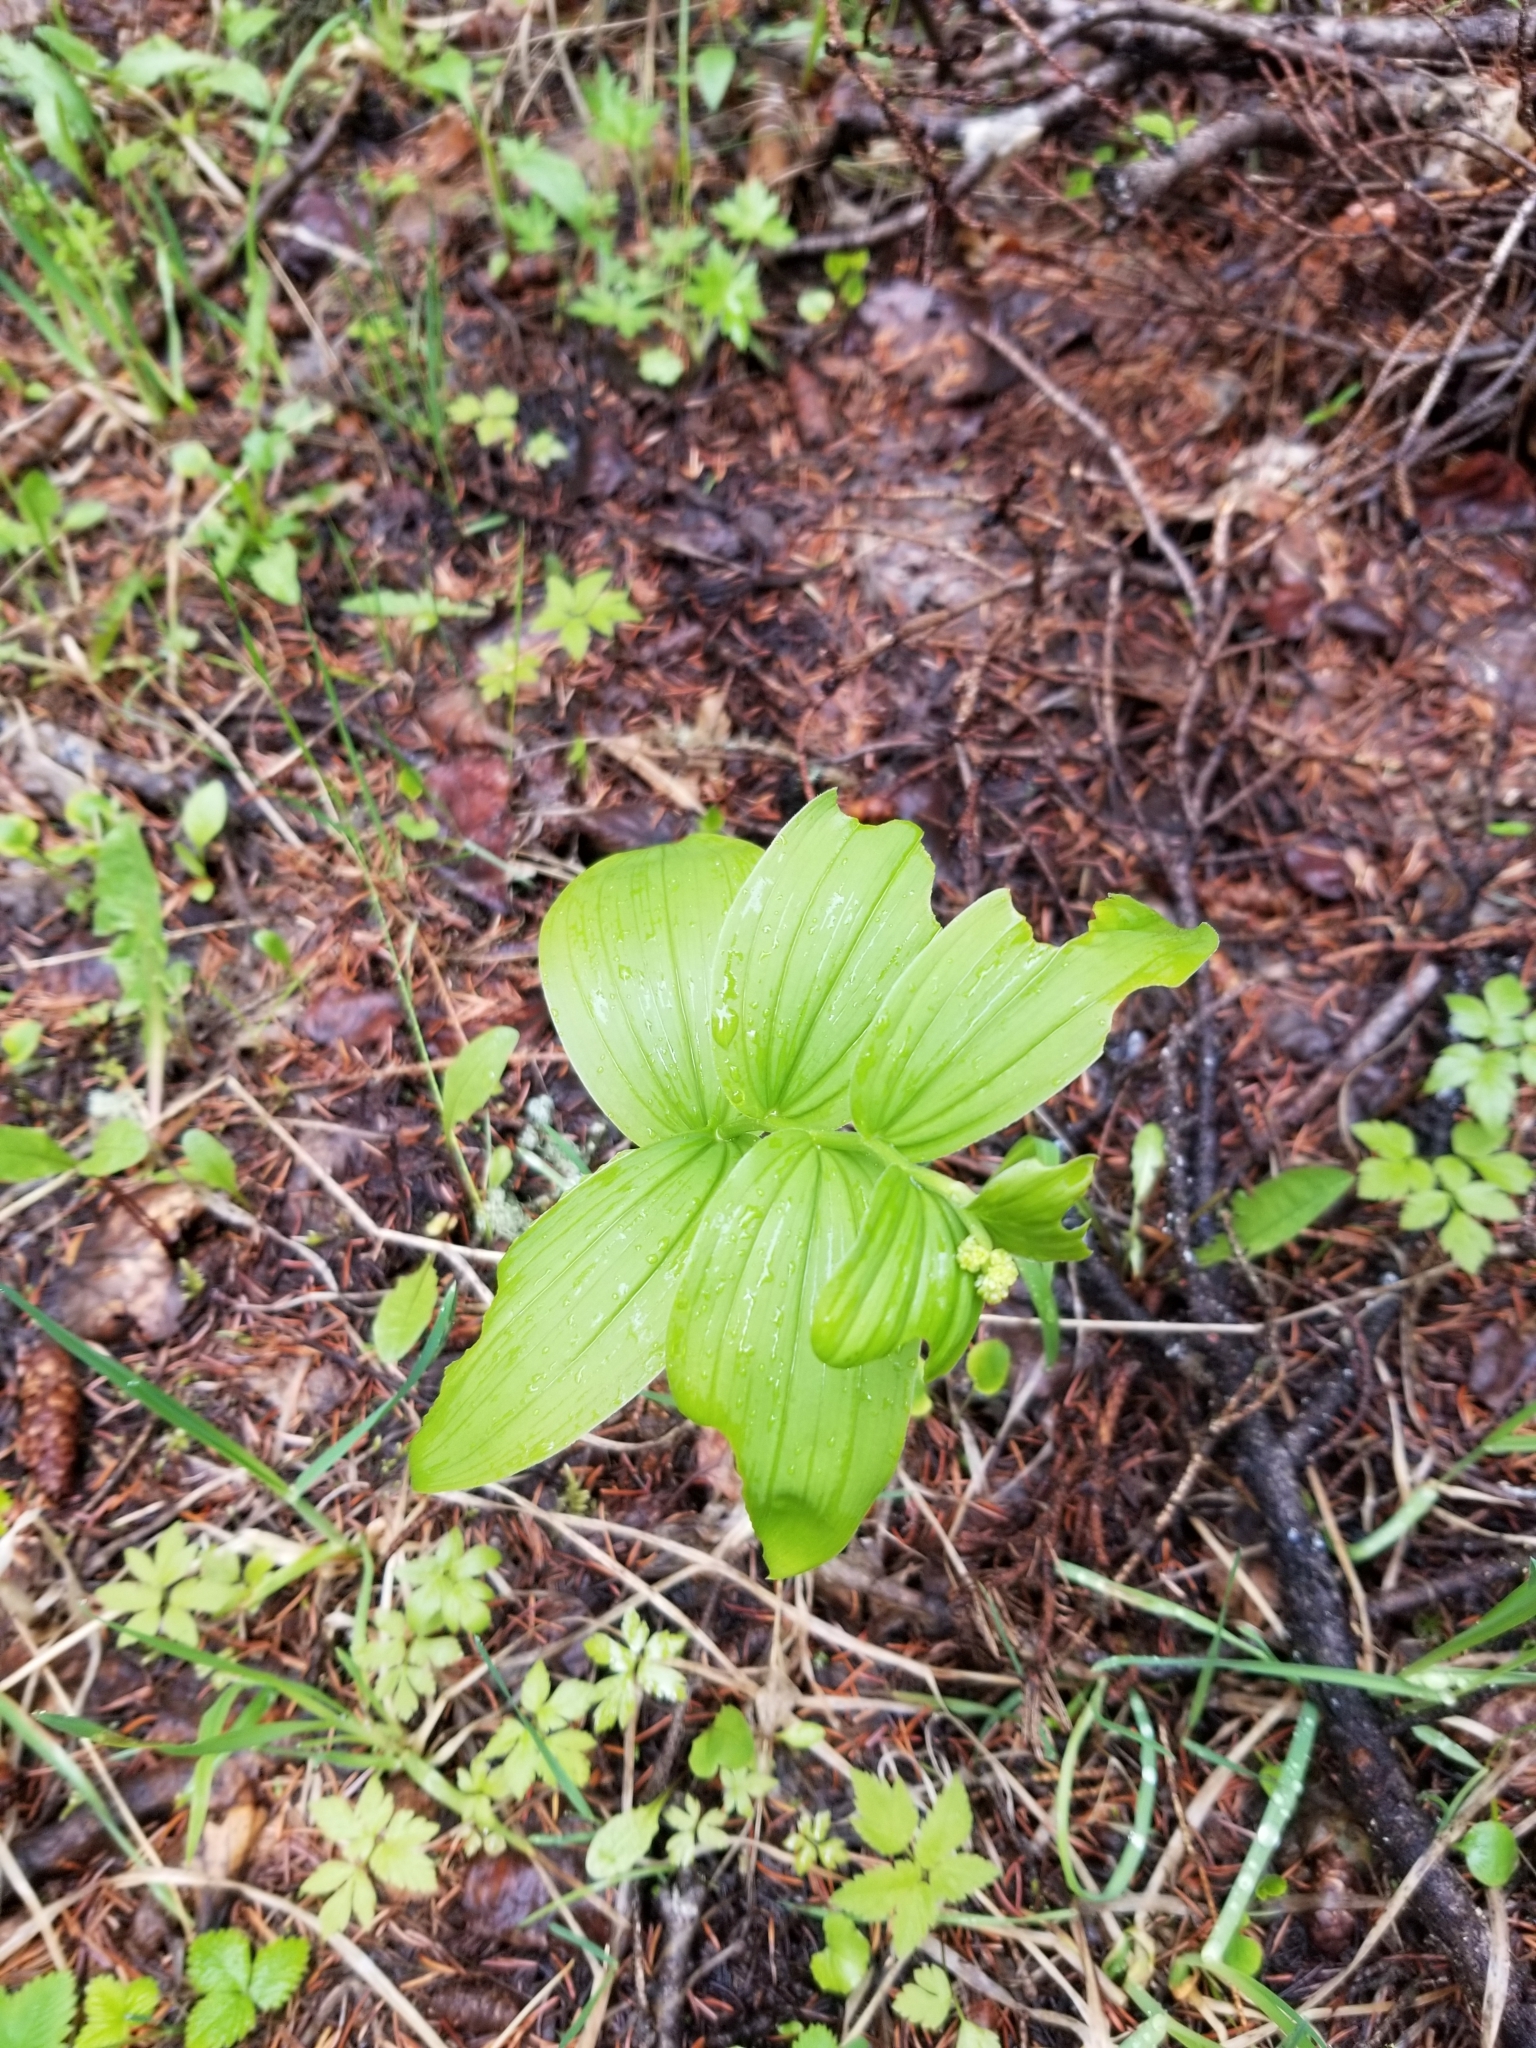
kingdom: Plantae
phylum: Tracheophyta
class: Liliopsida
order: Asparagales
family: Asparagaceae
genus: Maianthemum
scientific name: Maianthemum racemosum
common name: False spikenard
